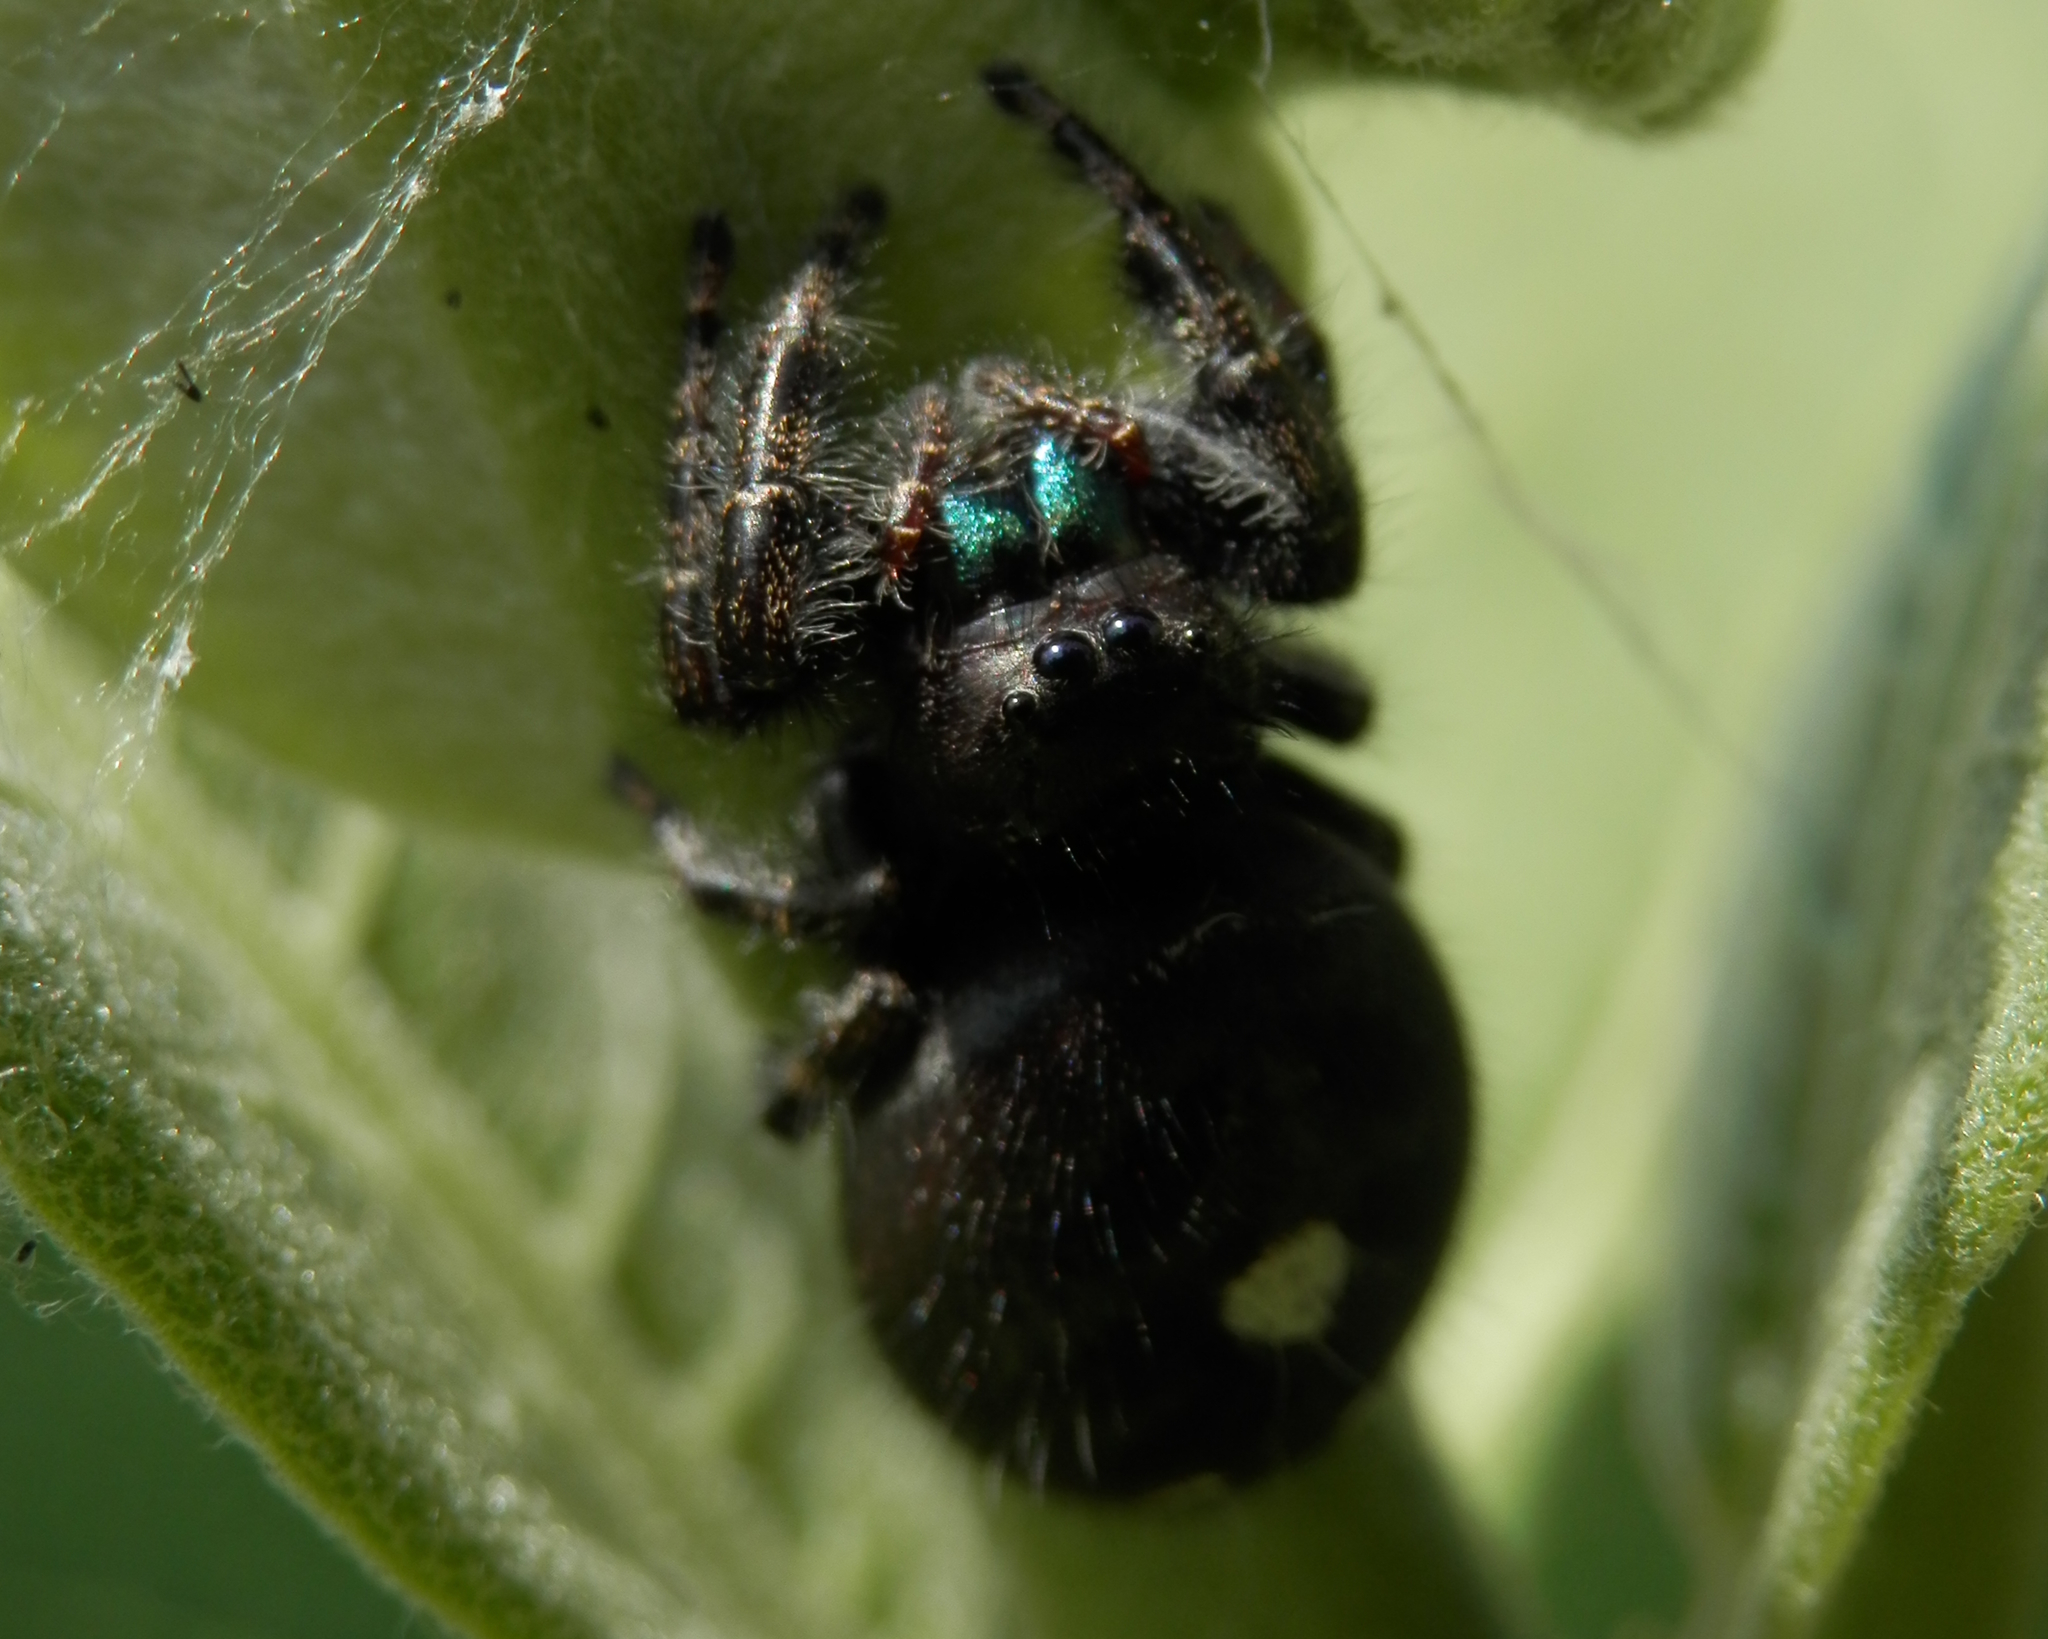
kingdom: Animalia
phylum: Arthropoda
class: Arachnida
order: Araneae
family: Salticidae
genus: Phidippus
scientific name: Phidippus audax
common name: Bold jumper
